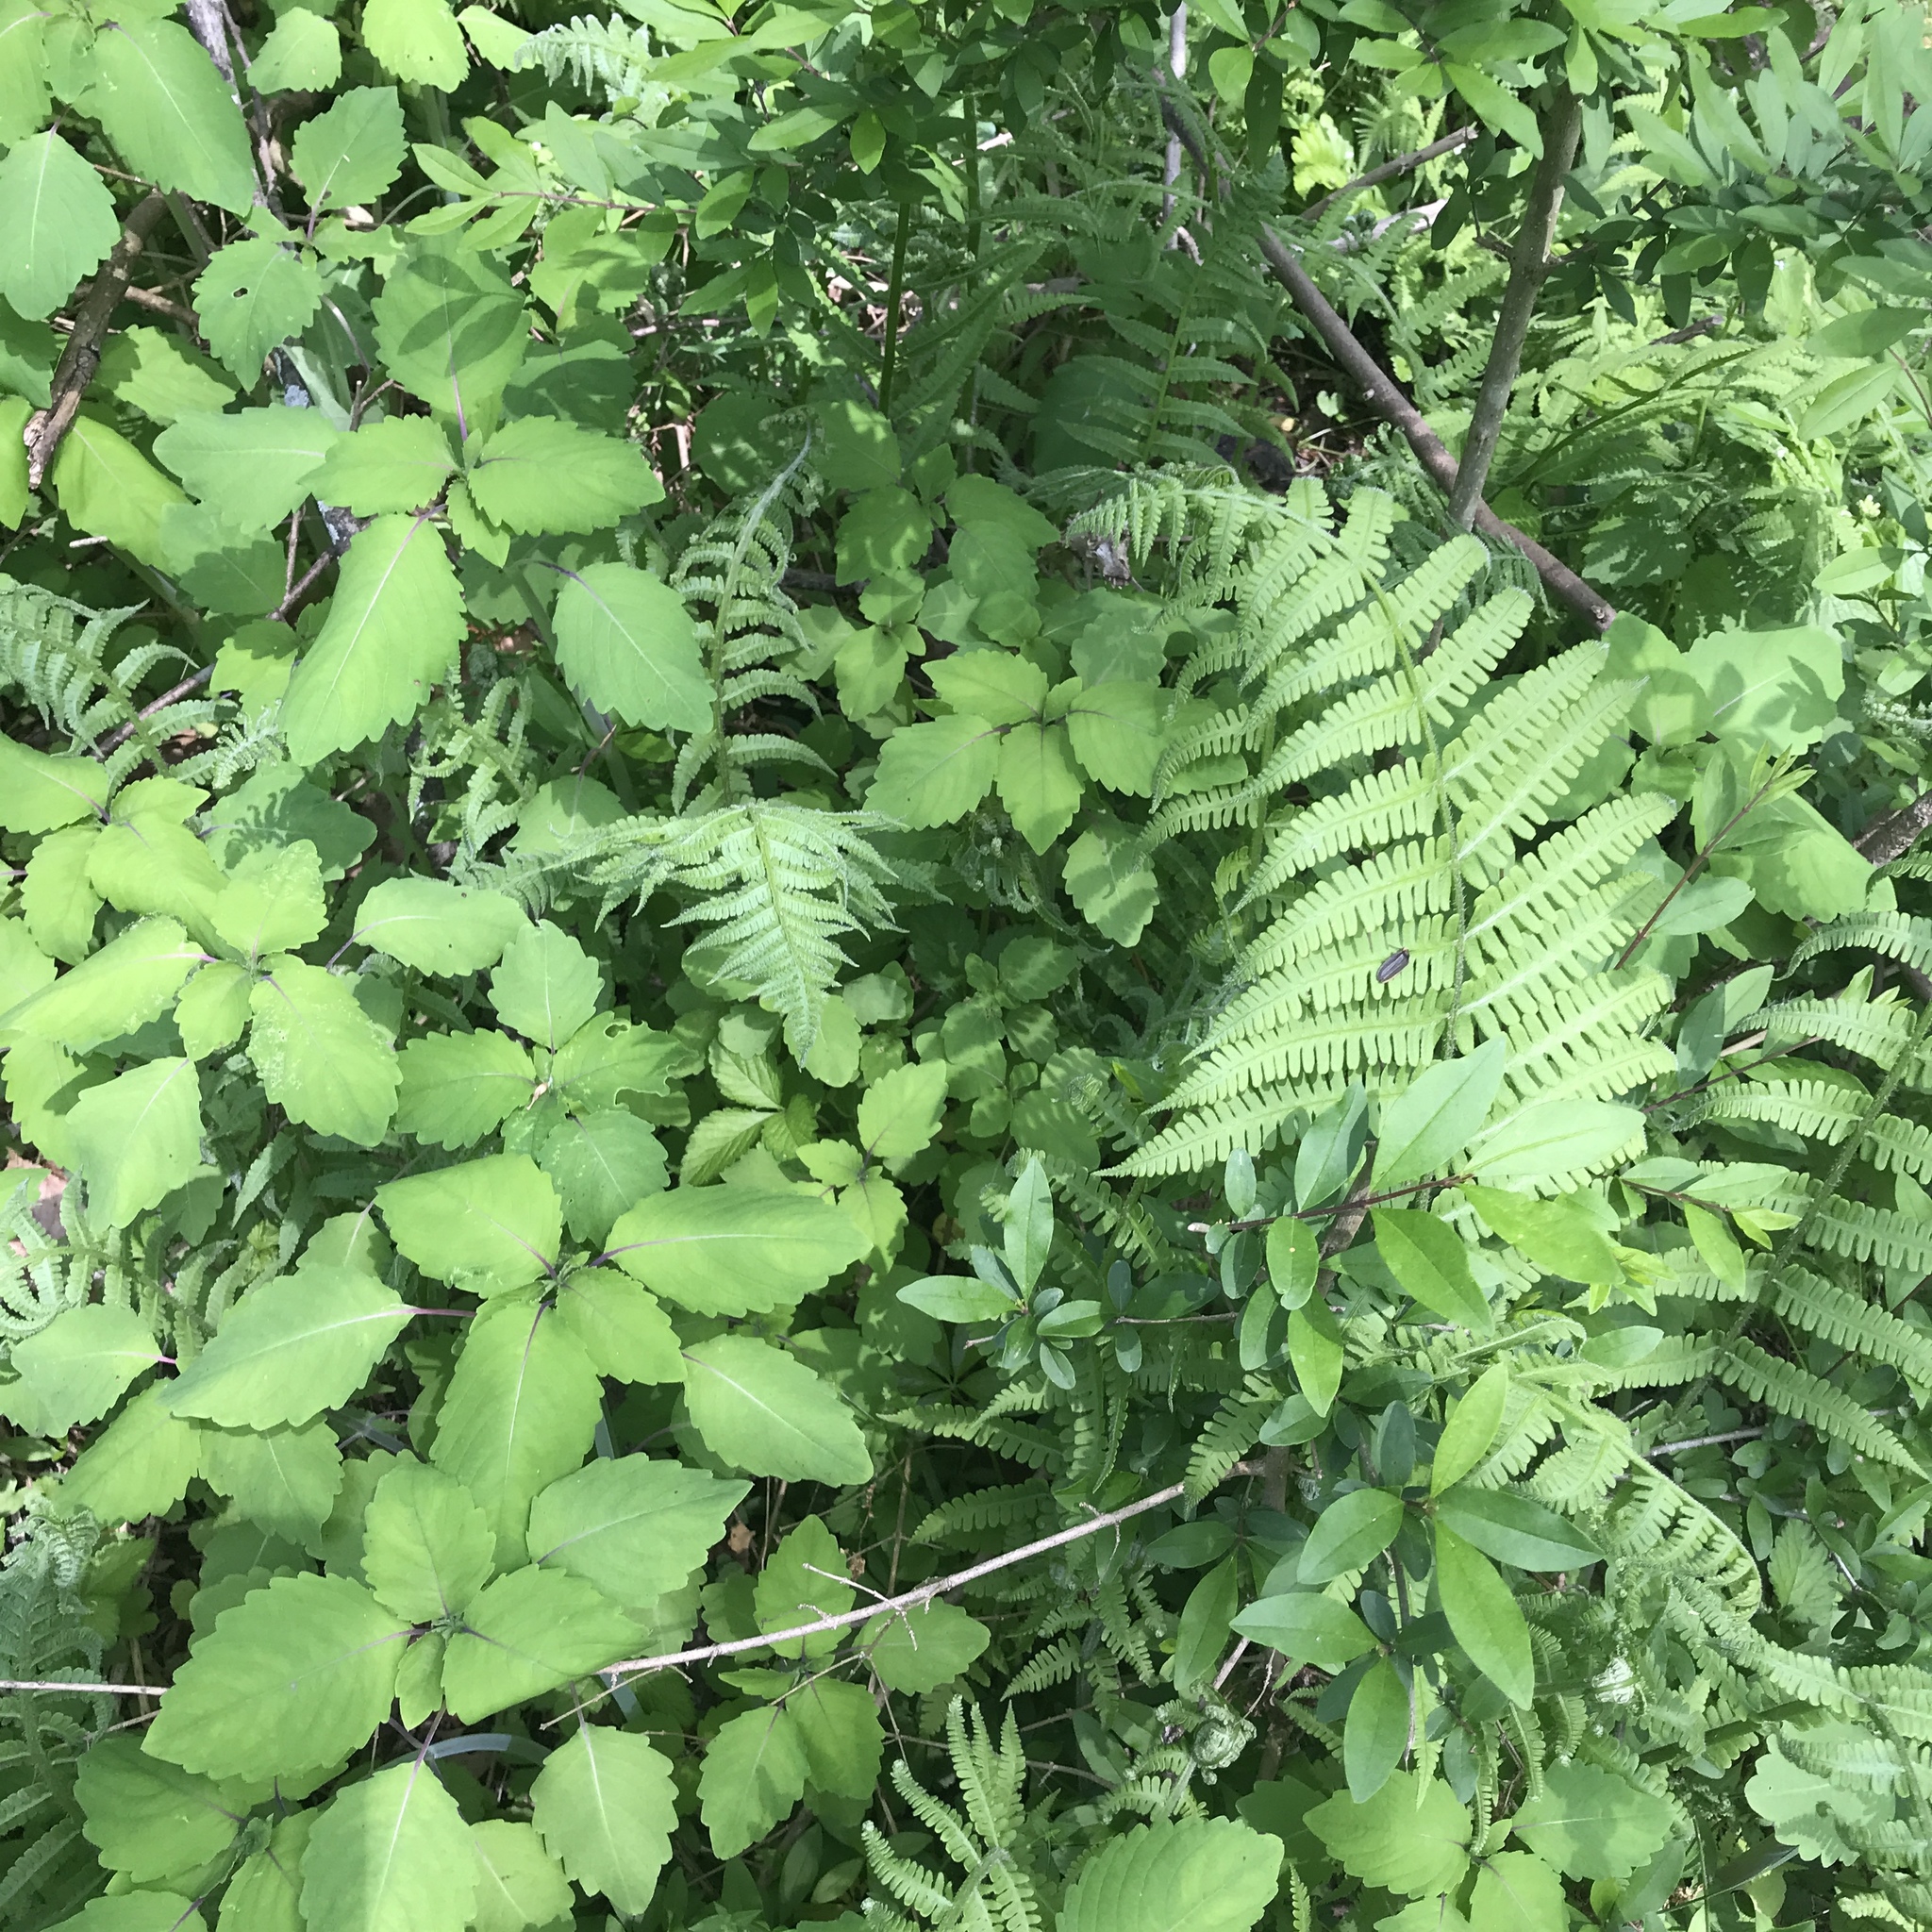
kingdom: Plantae
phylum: Tracheophyta
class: Polypodiopsida
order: Polypodiales
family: Athyriaceae
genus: Deparia
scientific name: Deparia acrostichoides
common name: Silver false spleenwort
